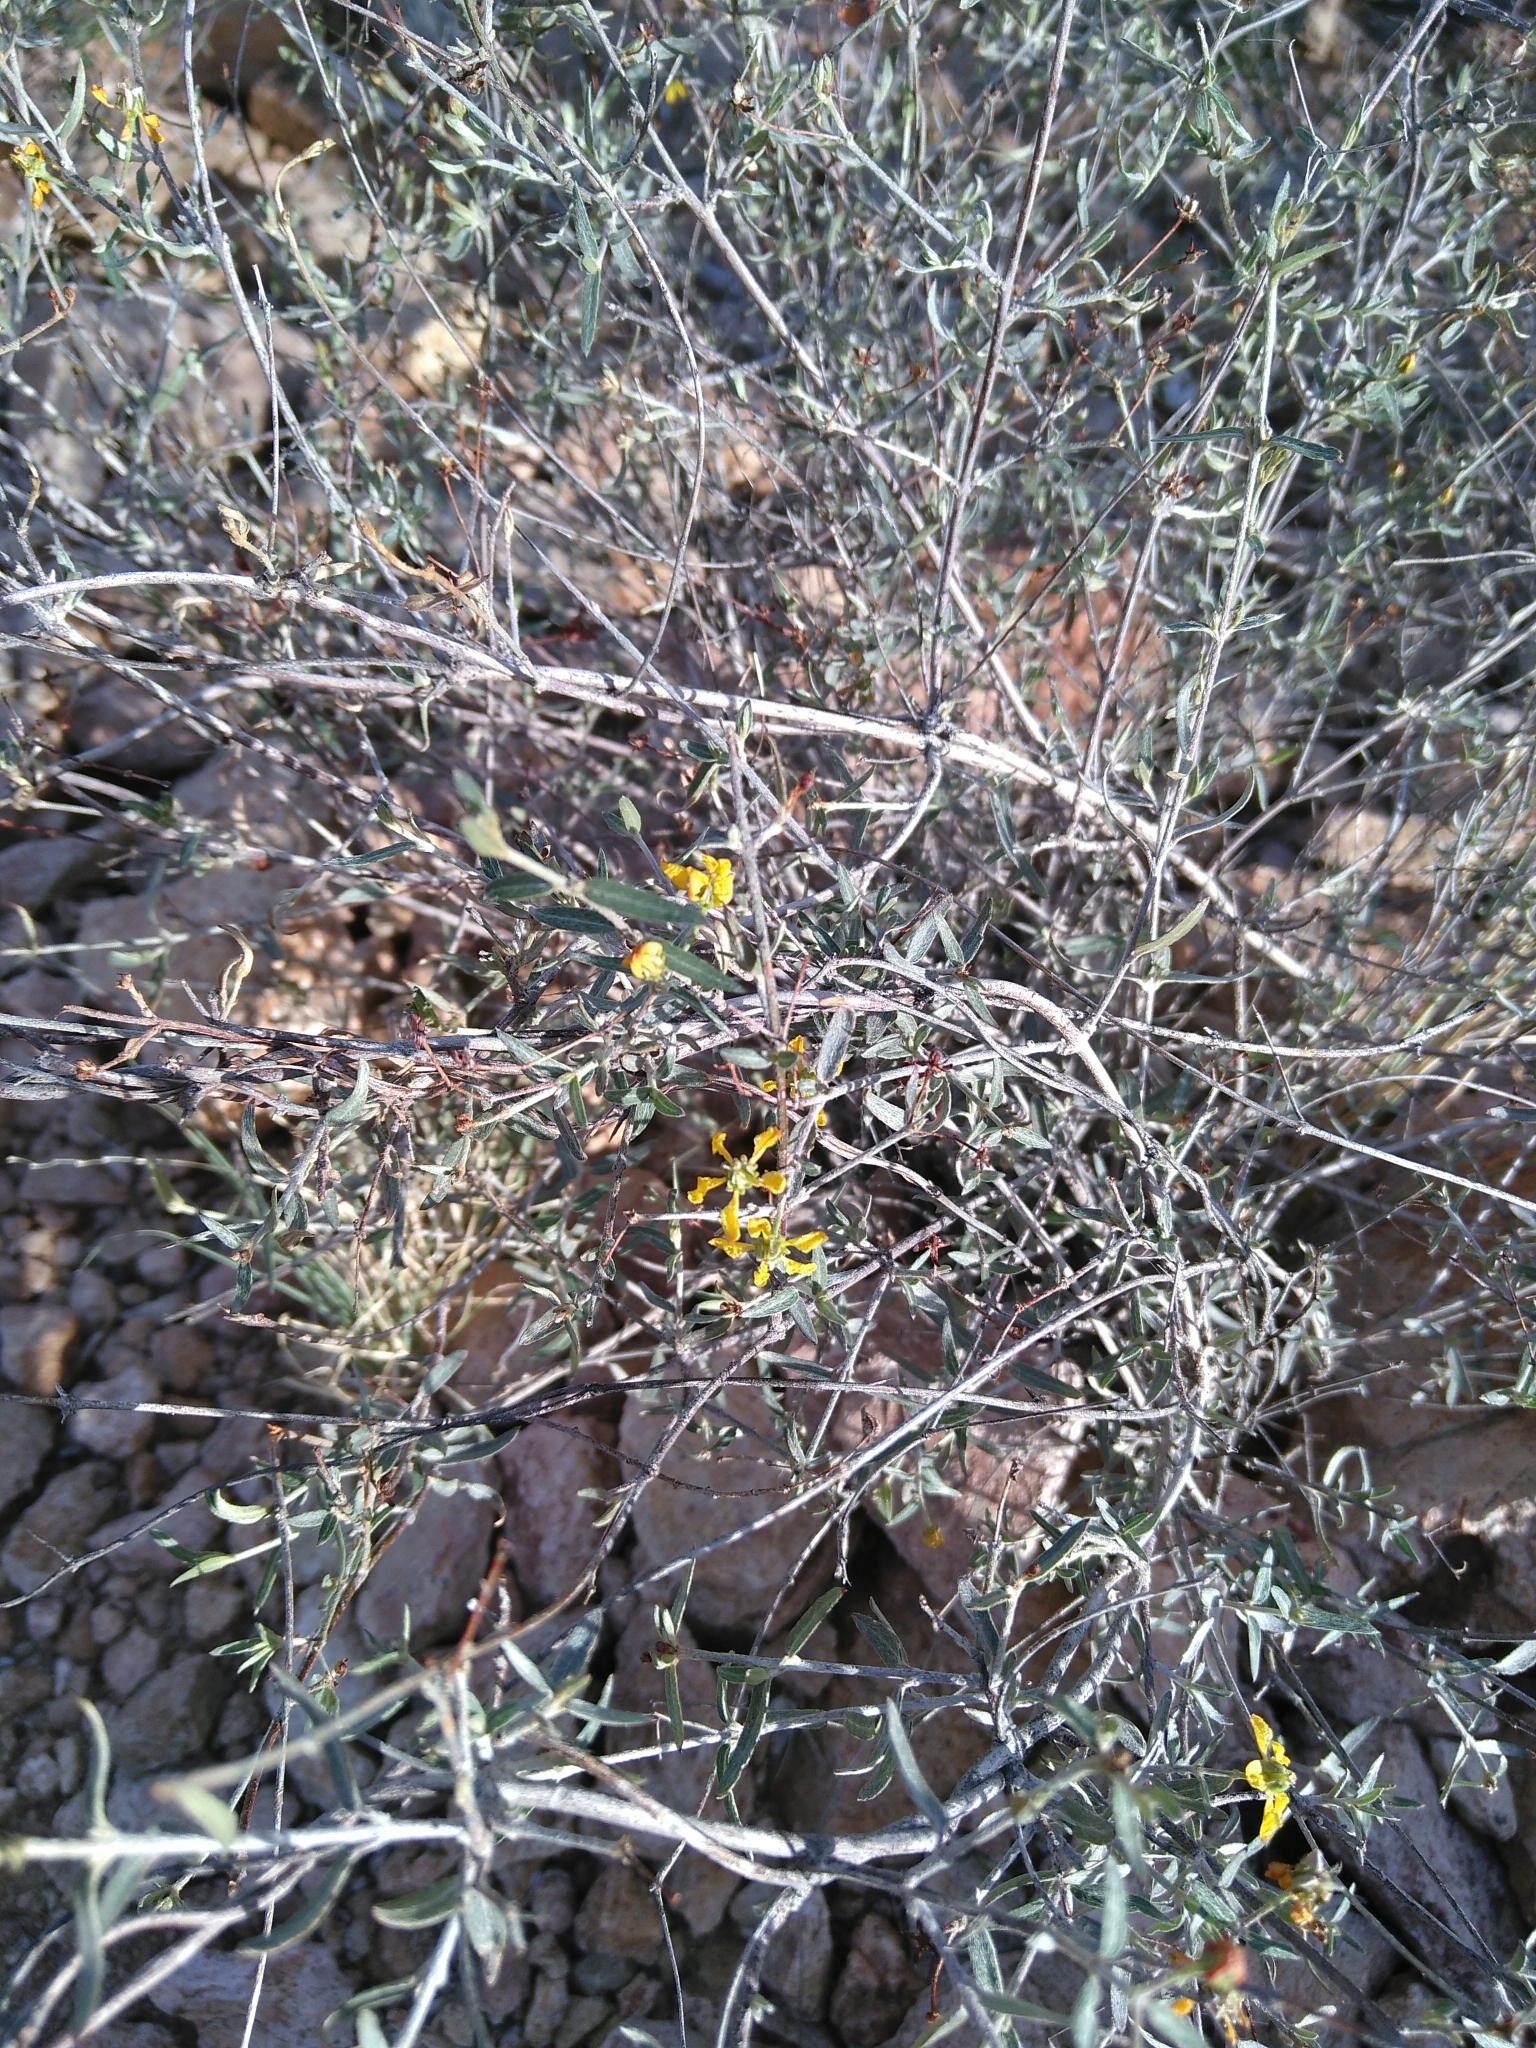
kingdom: Plantae
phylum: Tracheophyta
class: Magnoliopsida
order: Malpighiales
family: Malpighiaceae
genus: Cottsia
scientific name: Cottsia gracilis
